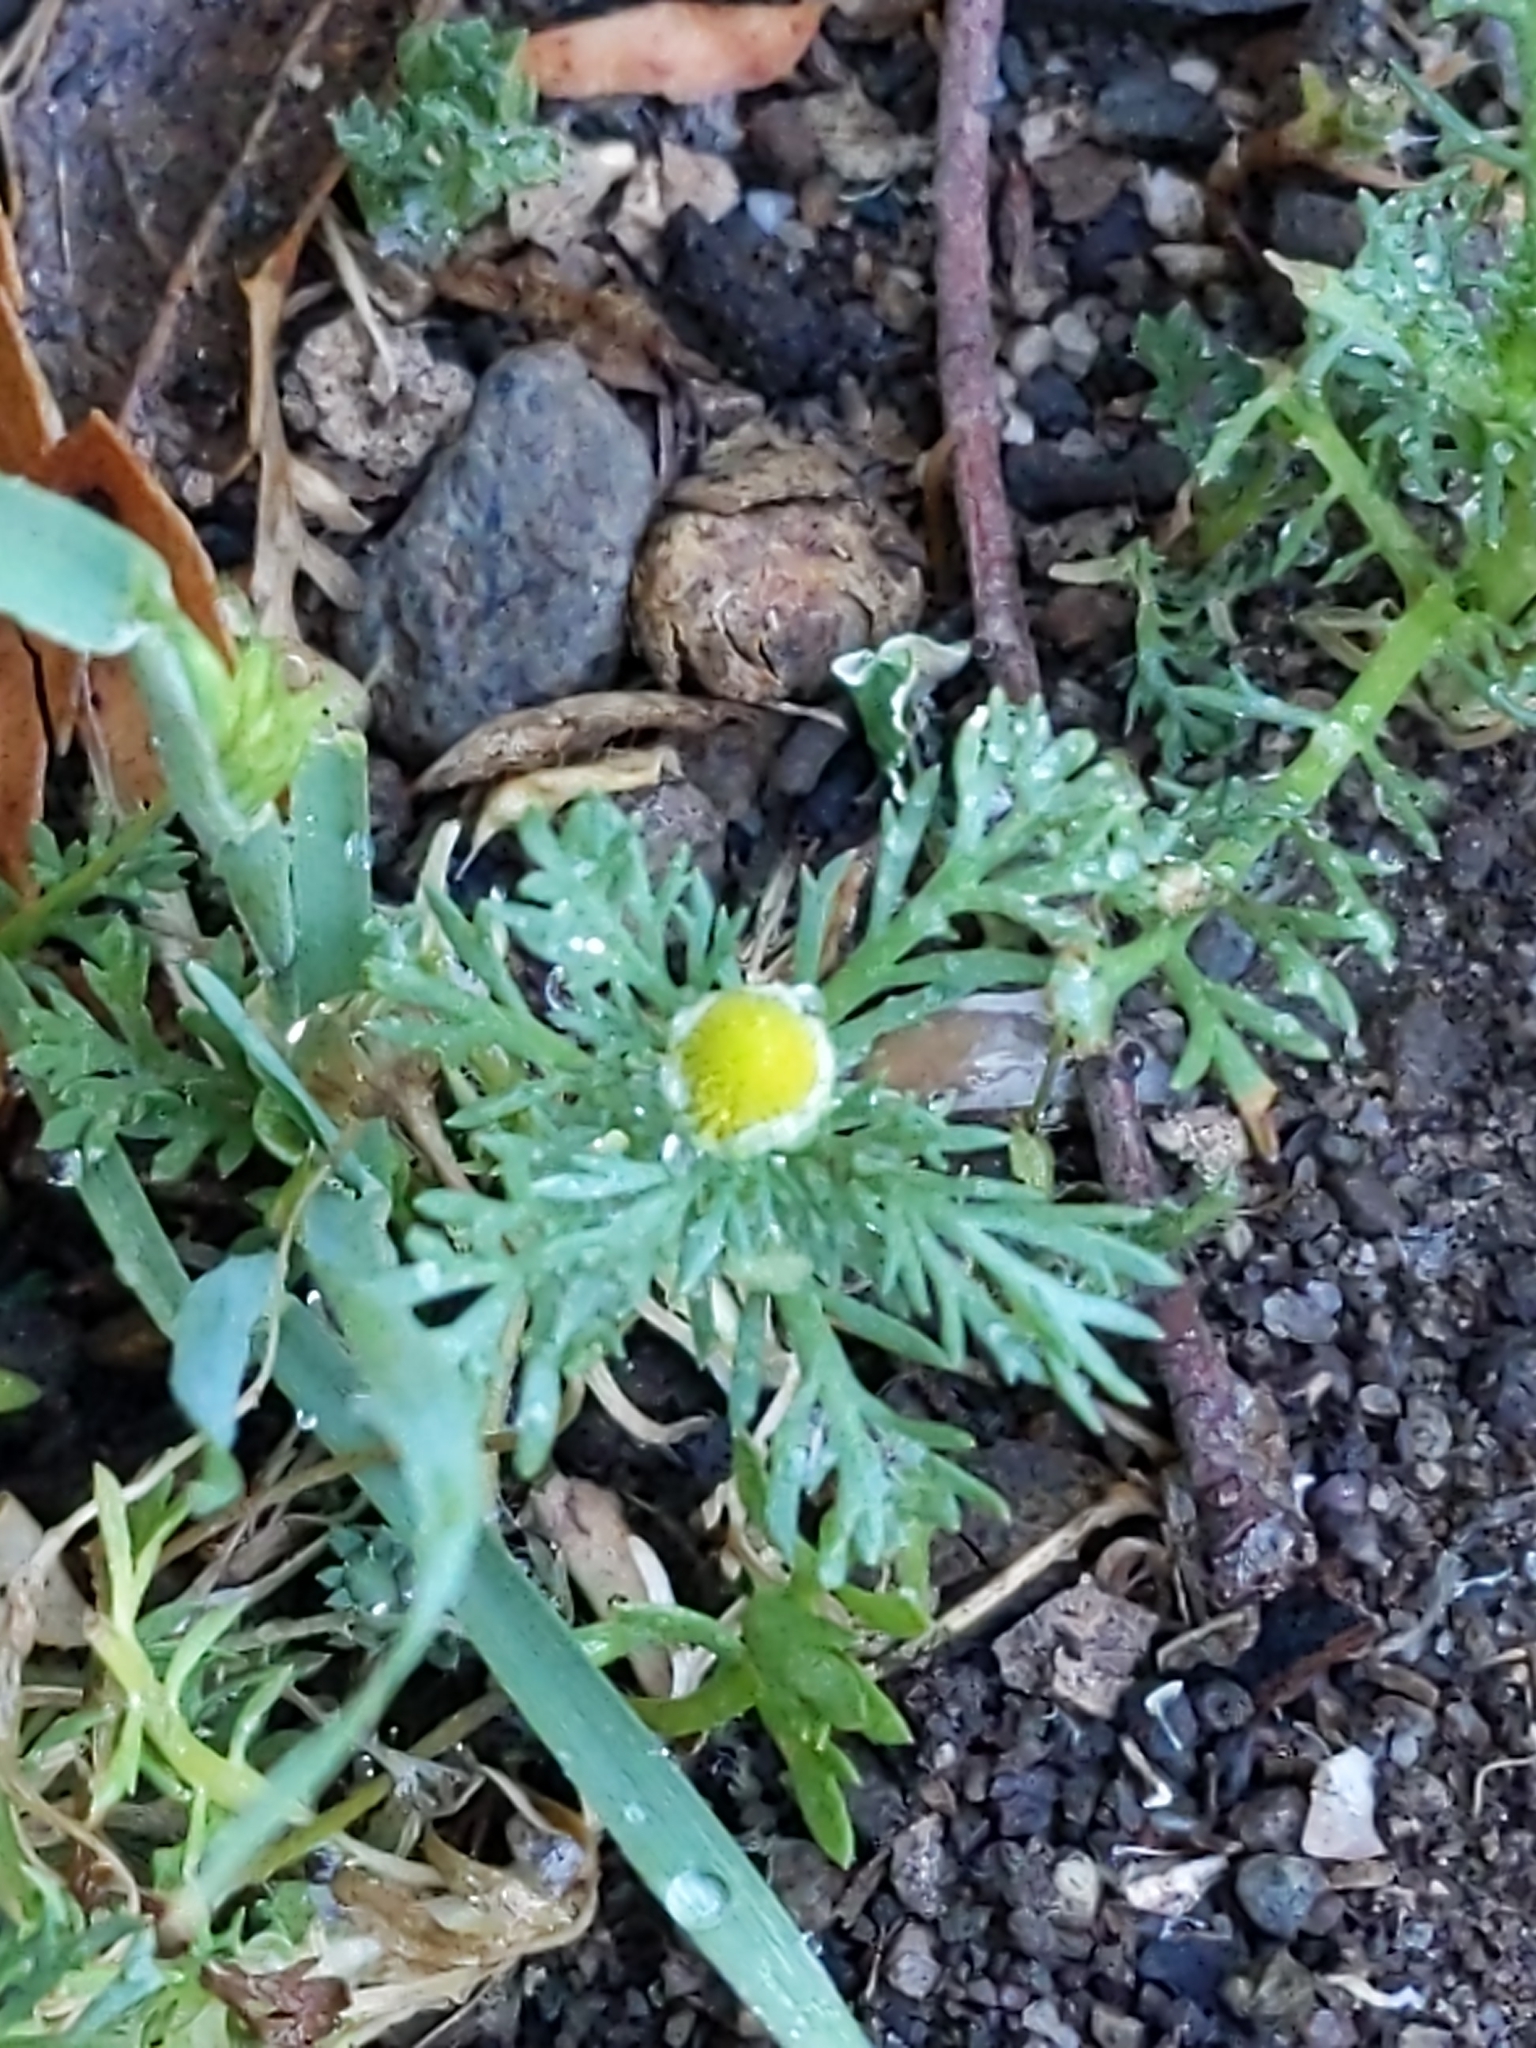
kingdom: Plantae
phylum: Tracheophyta
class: Magnoliopsida
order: Asterales
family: Asteraceae
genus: Matricaria
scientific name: Matricaria discoidea
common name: Disc mayweed
